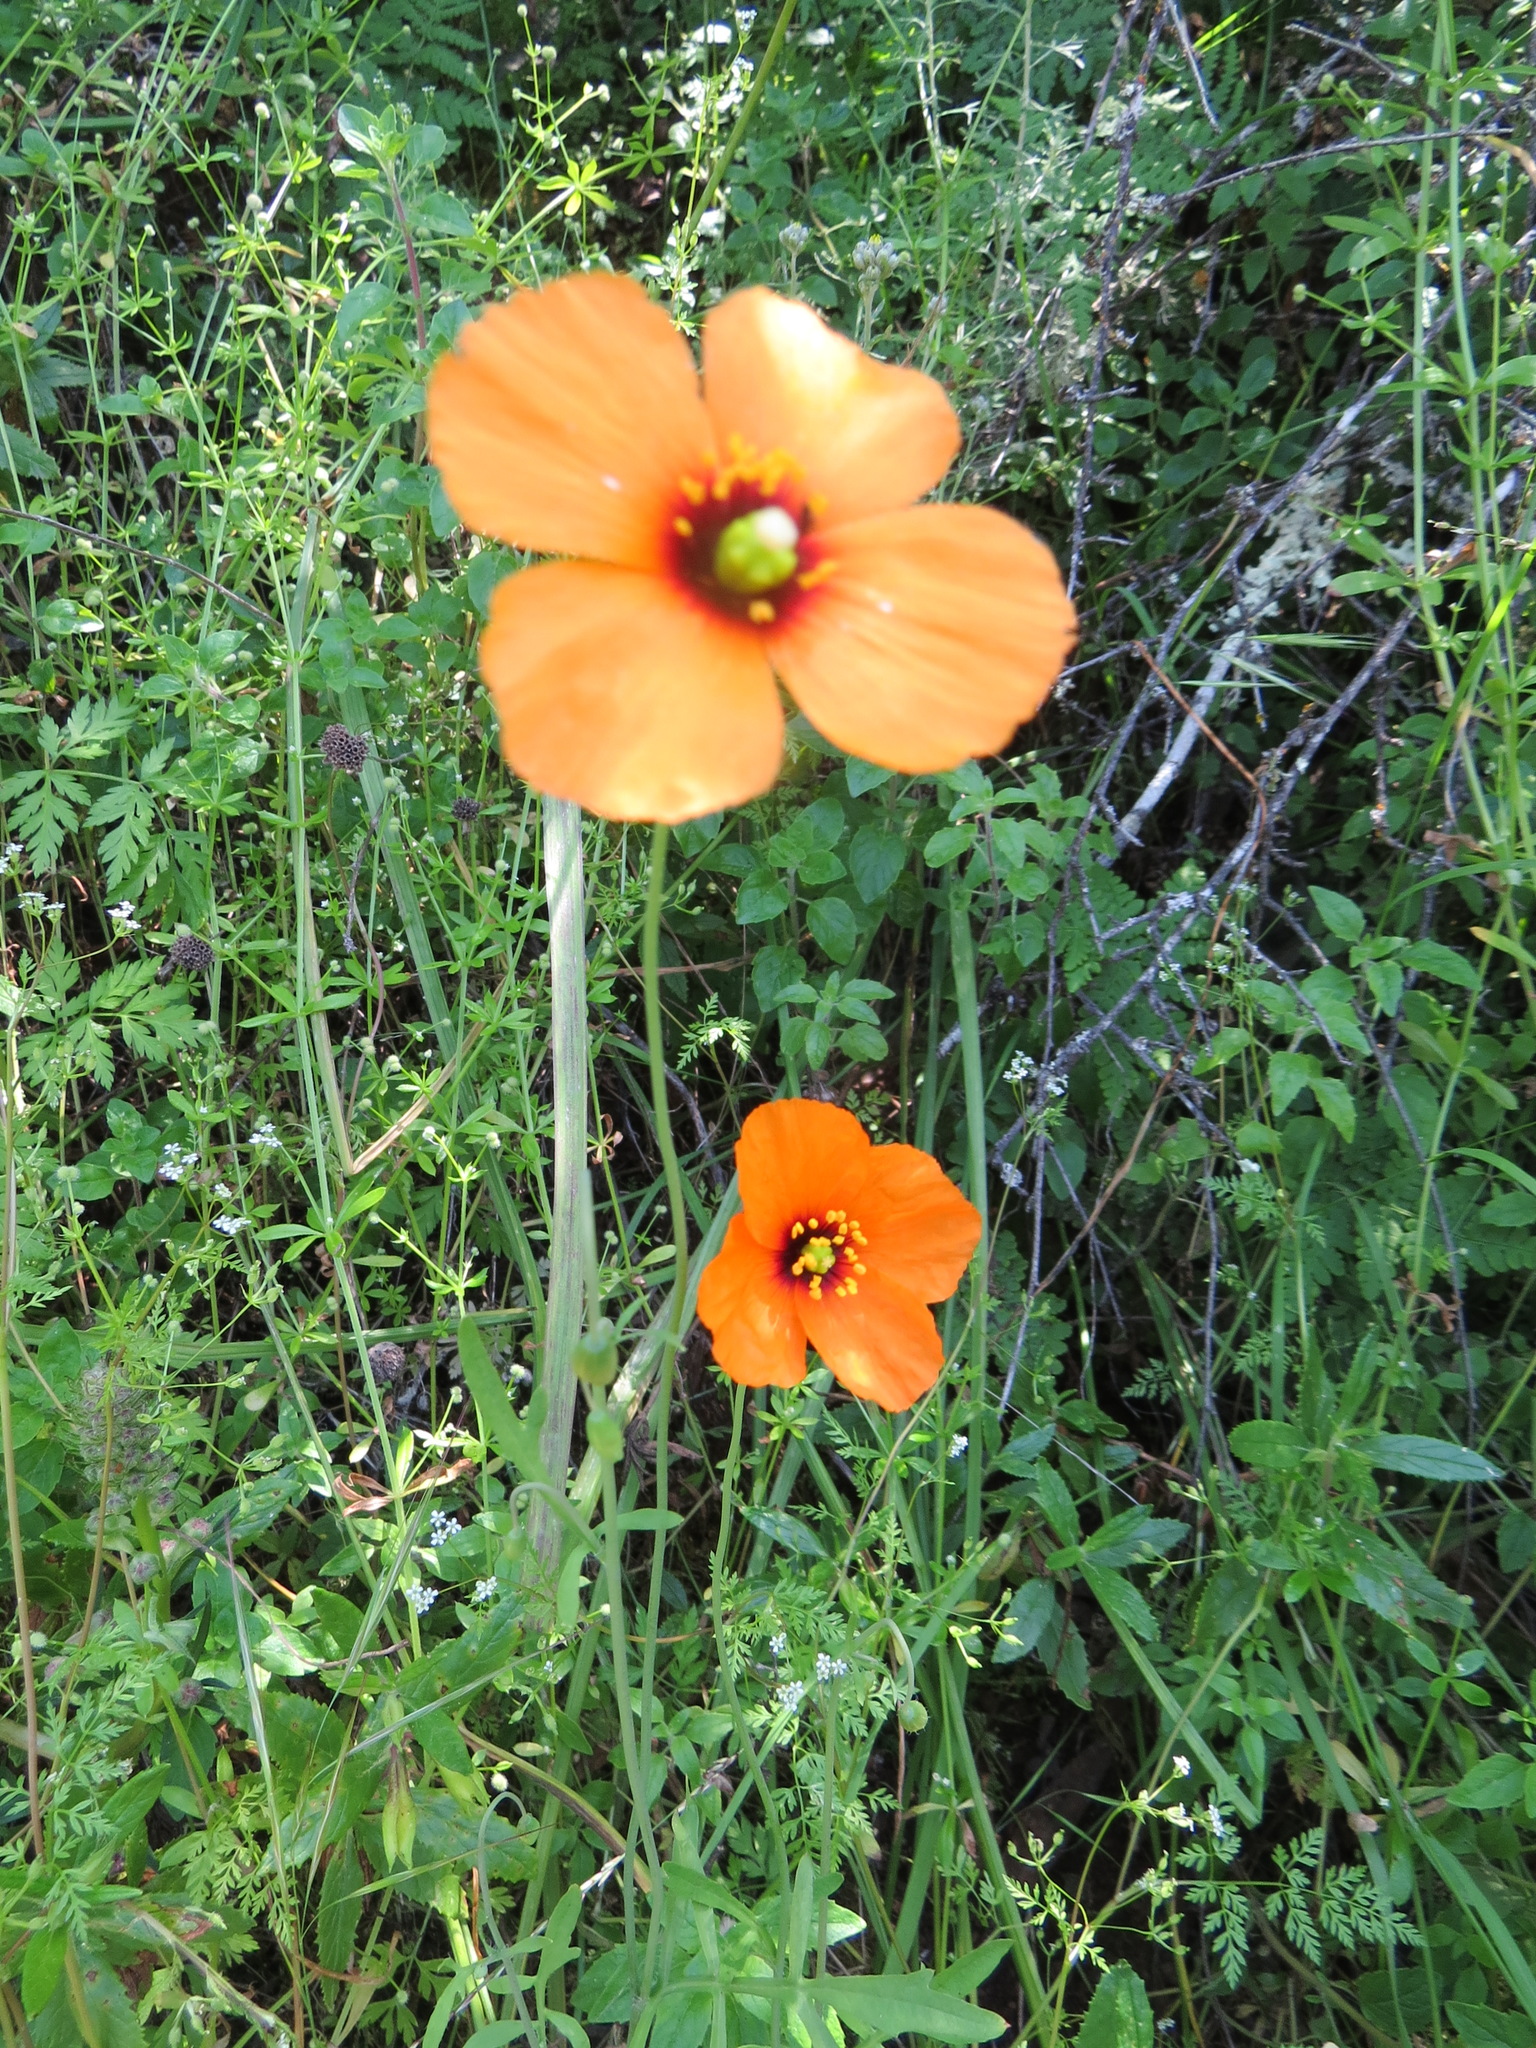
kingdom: Plantae
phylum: Tracheophyta
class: Magnoliopsida
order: Ranunculales
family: Papaveraceae
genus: Stylomecon
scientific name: Stylomecon heterophylla
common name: Flaming-poppy
